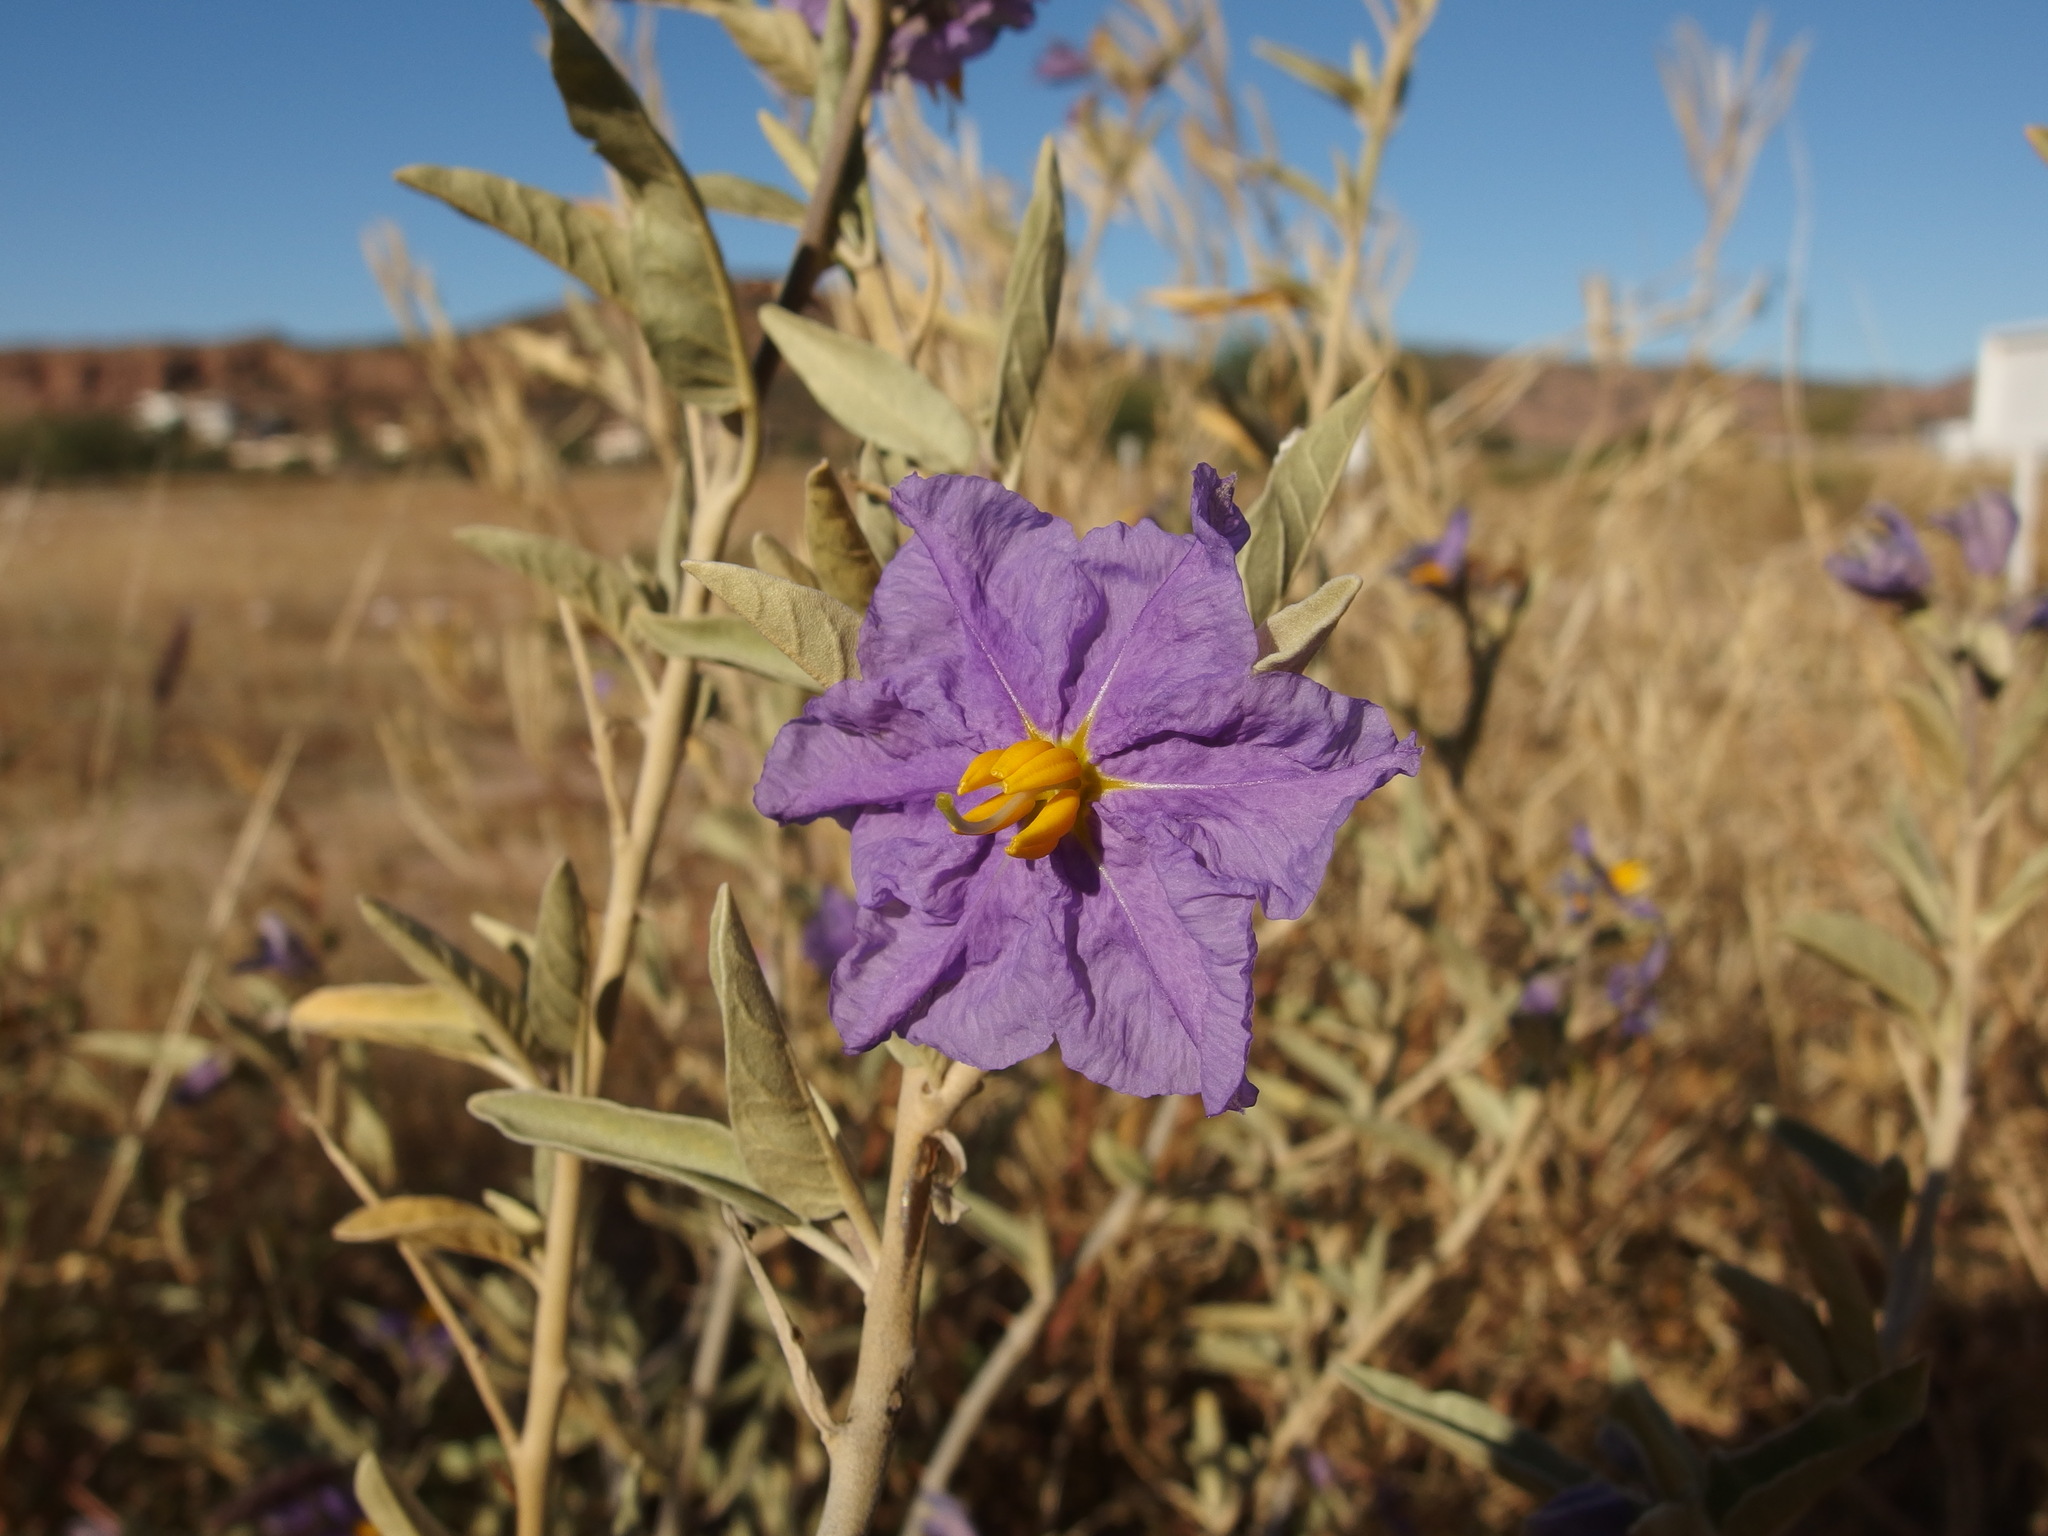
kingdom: Plantae
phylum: Tracheophyta
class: Magnoliopsida
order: Solanales
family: Solanaceae
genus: Solanum
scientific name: Solanum hindsianum
